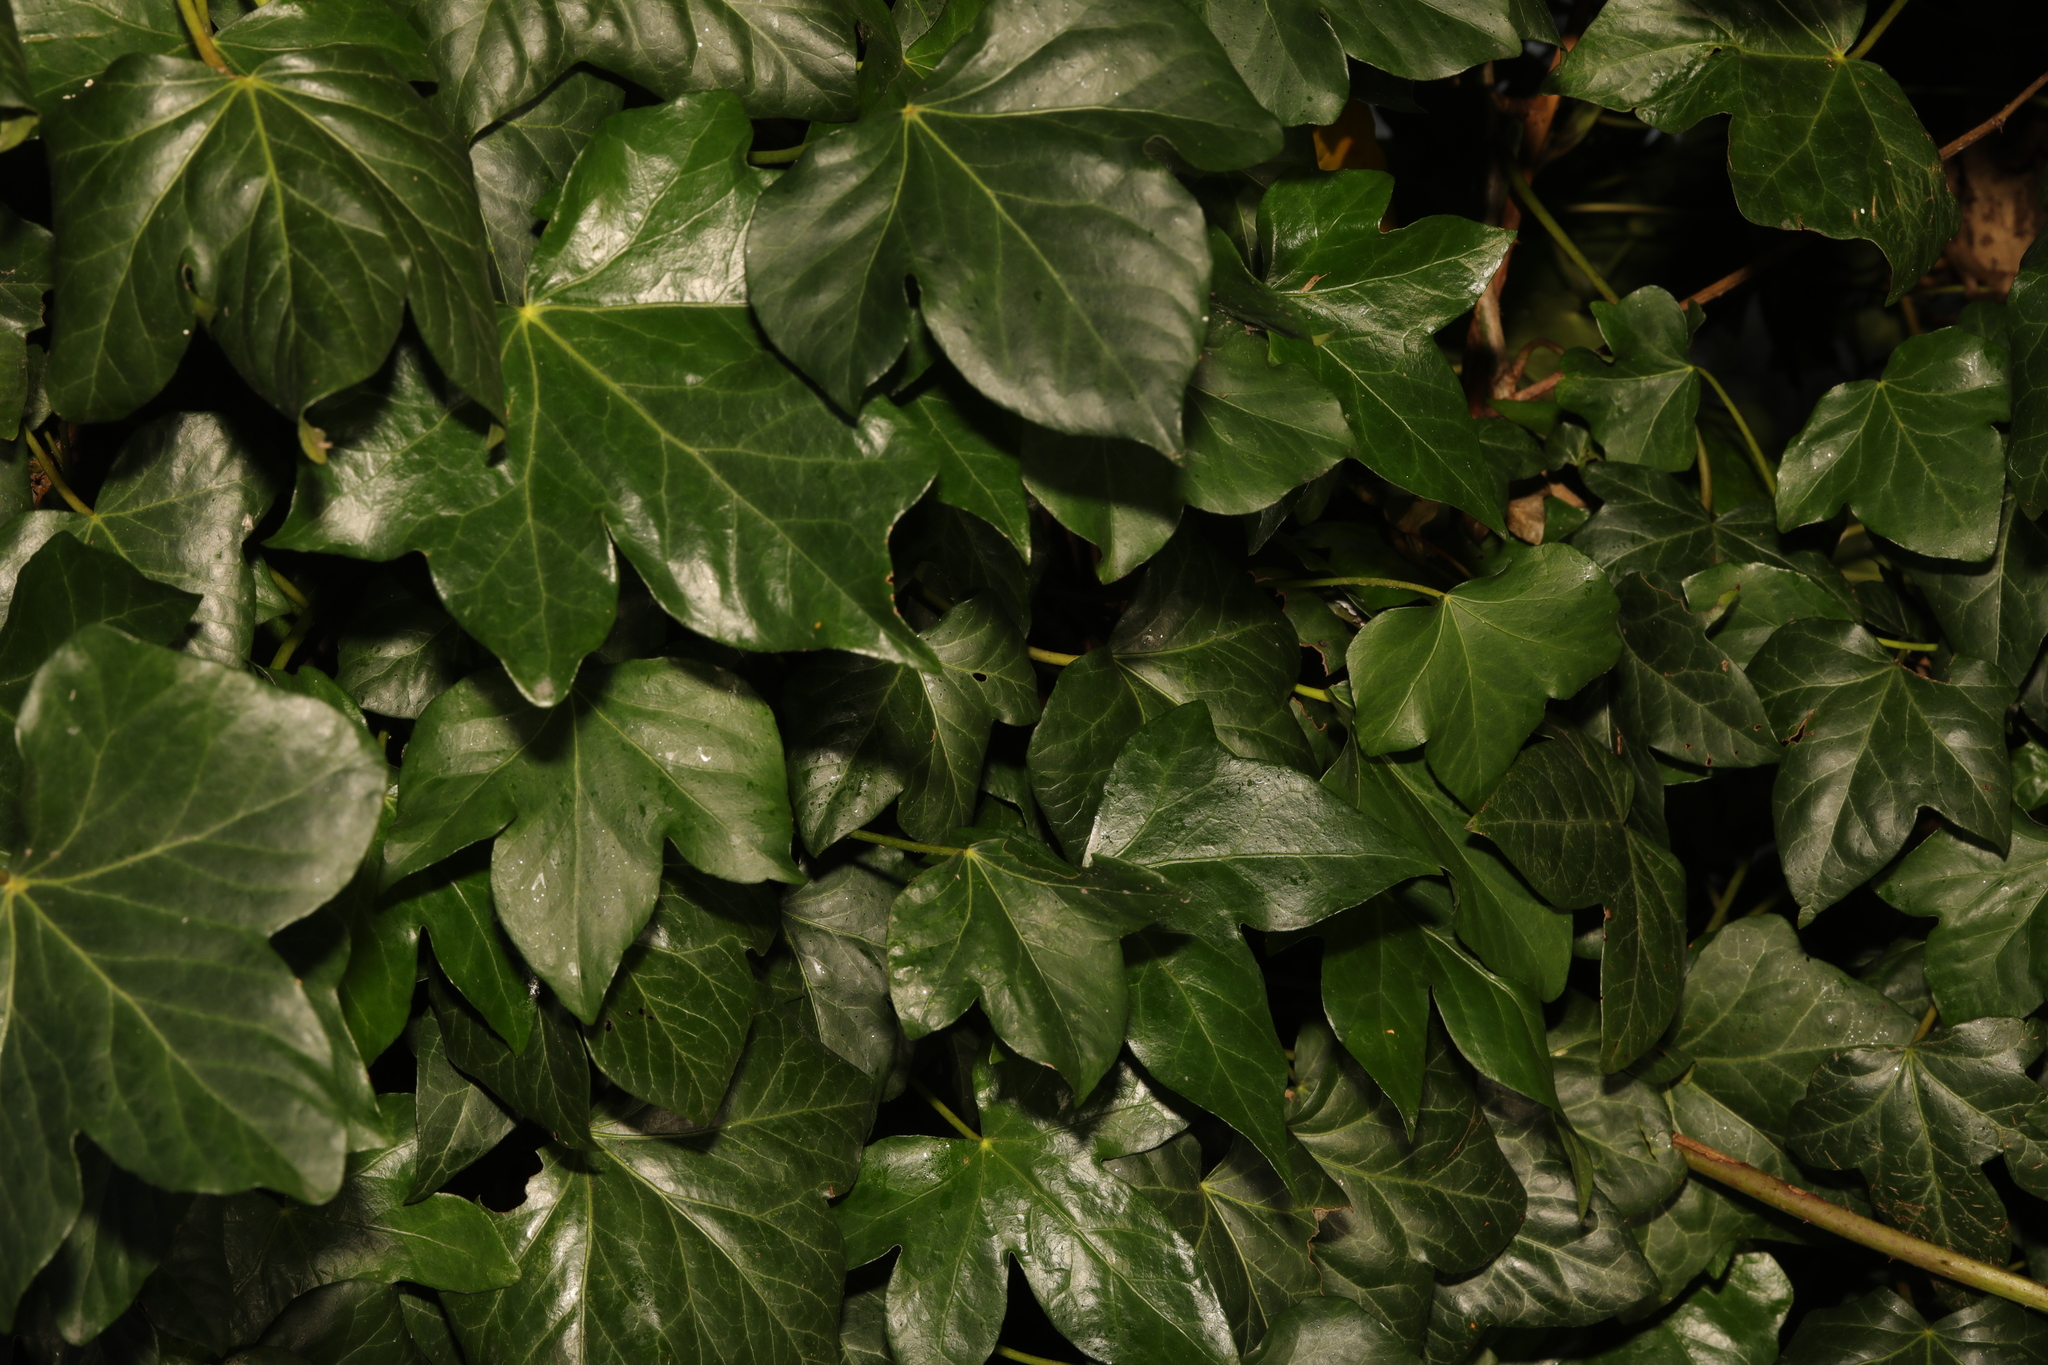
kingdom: Plantae
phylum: Tracheophyta
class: Magnoliopsida
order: Apiales
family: Araliaceae
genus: Hedera
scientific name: Hedera helix
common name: Ivy
